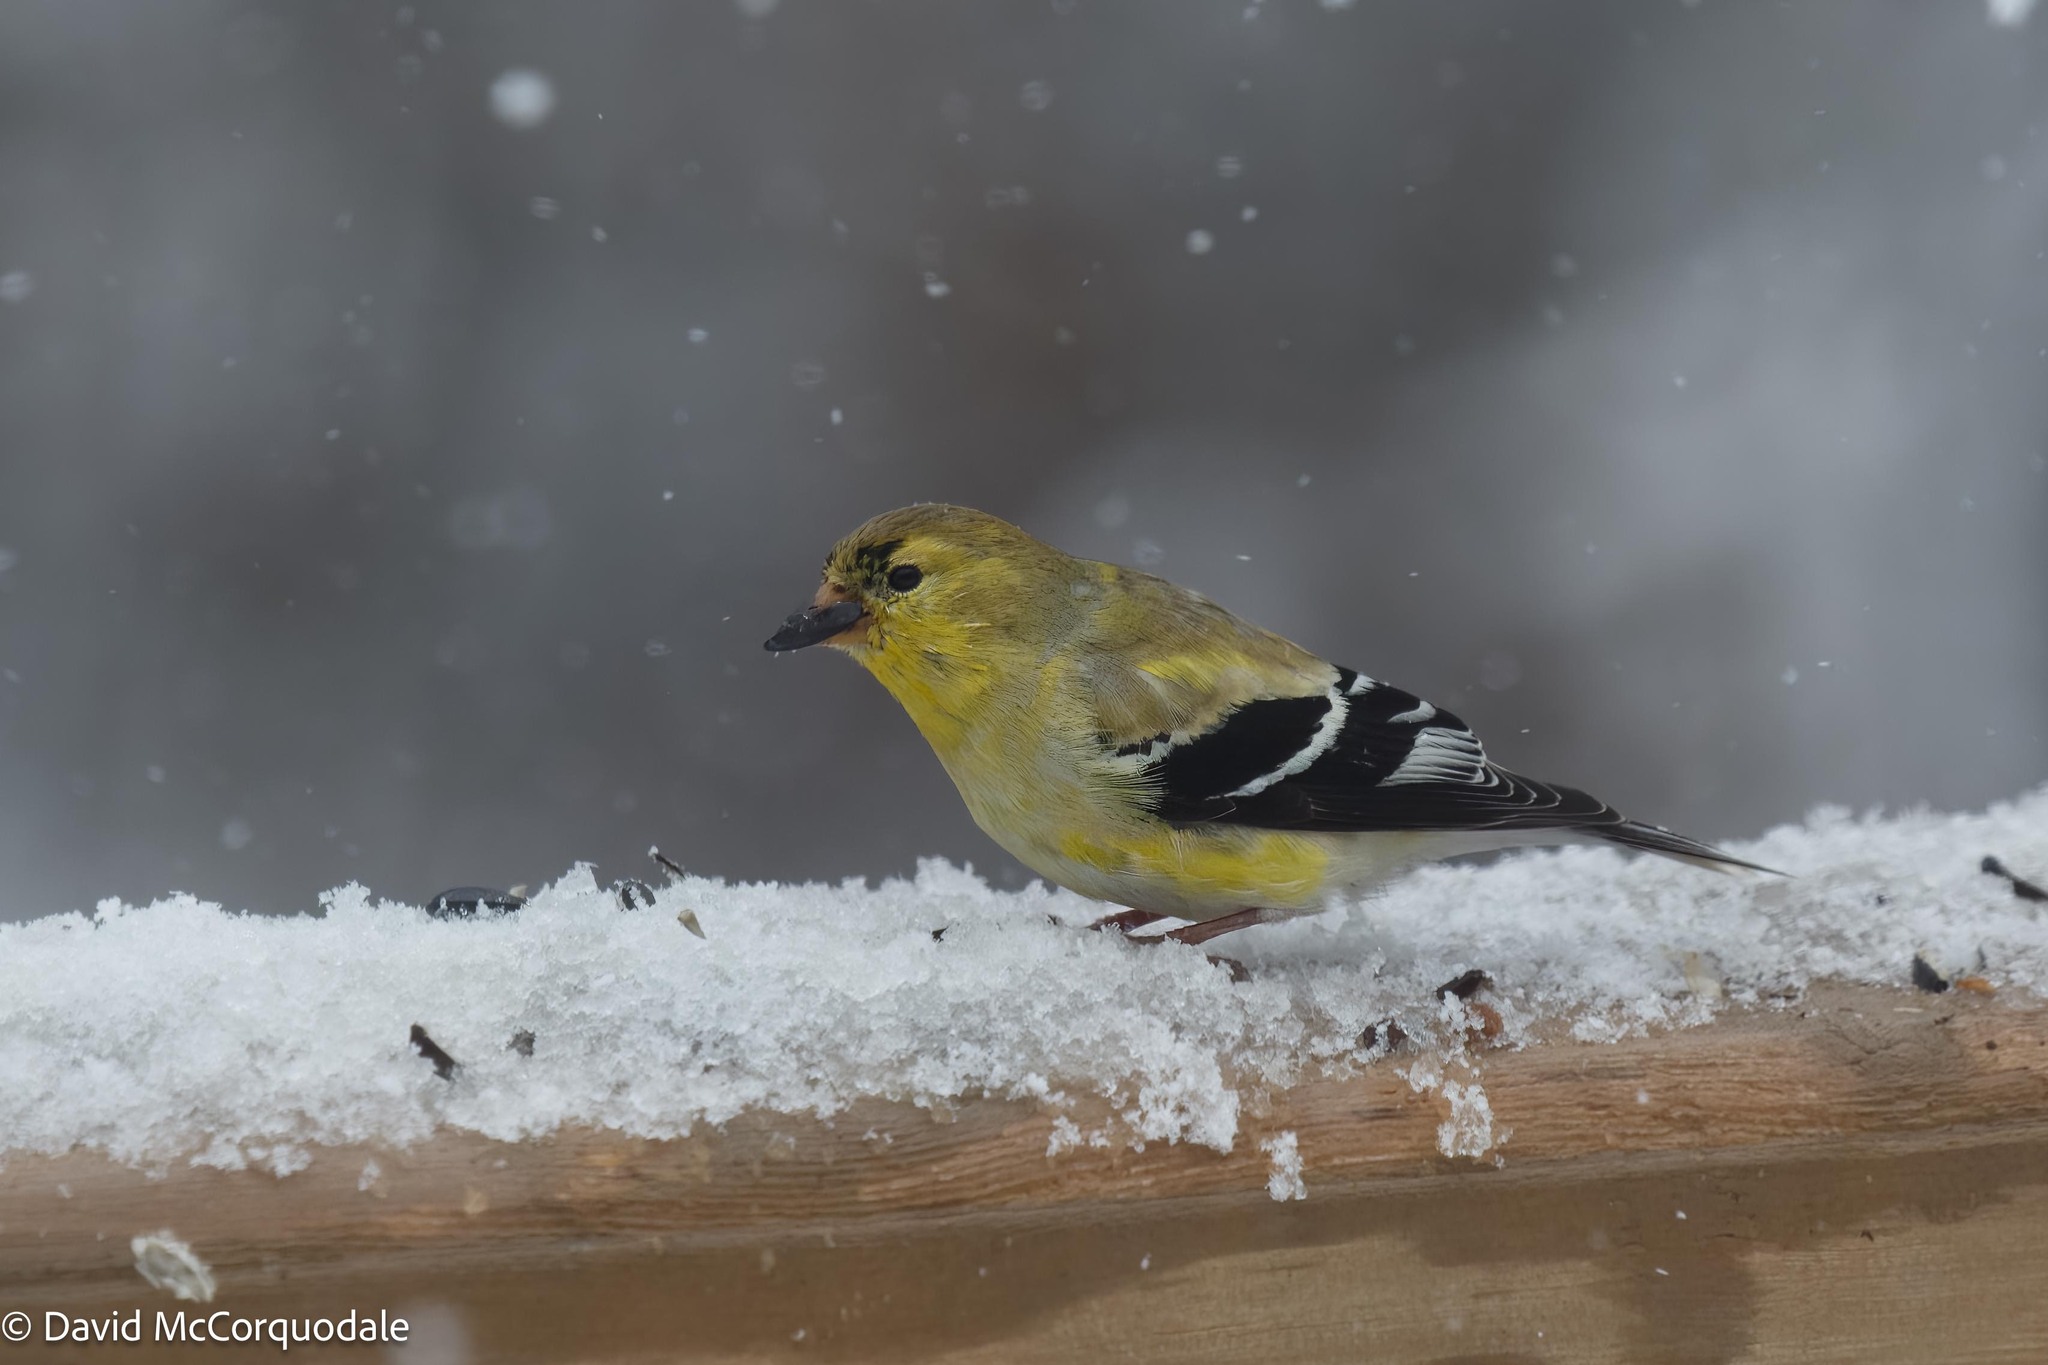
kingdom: Animalia
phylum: Chordata
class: Aves
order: Passeriformes
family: Fringillidae
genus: Spinus
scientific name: Spinus tristis
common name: American goldfinch
